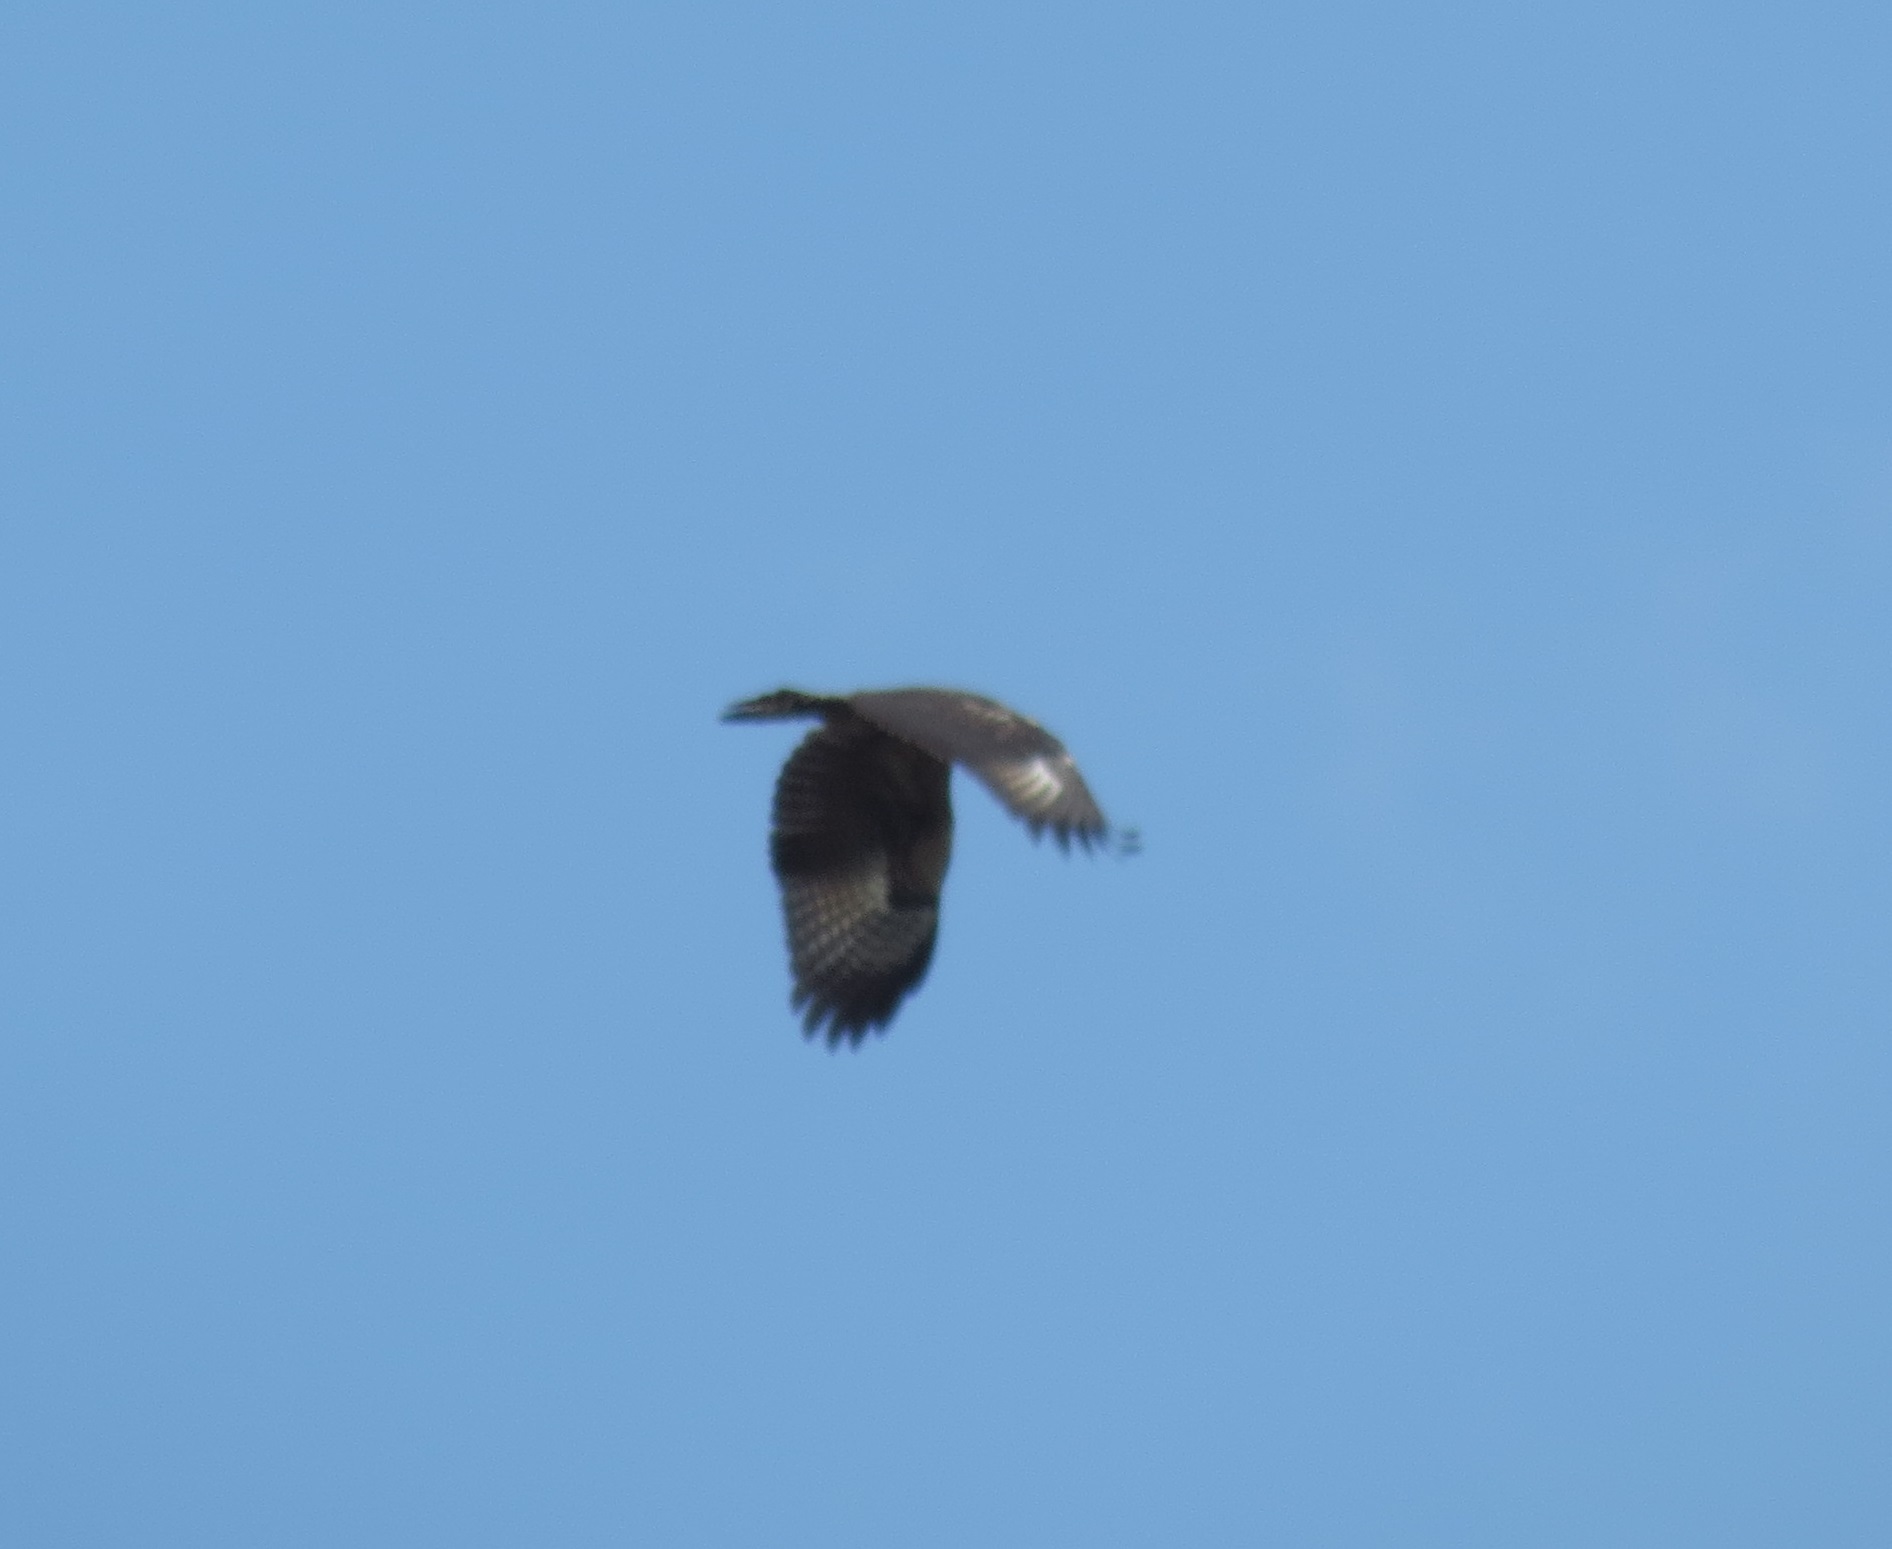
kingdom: Animalia
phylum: Chordata
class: Aves
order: Accipitriformes
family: Accipitridae
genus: Buteogallus
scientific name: Buteogallus anthracinus
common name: Common black hawk
